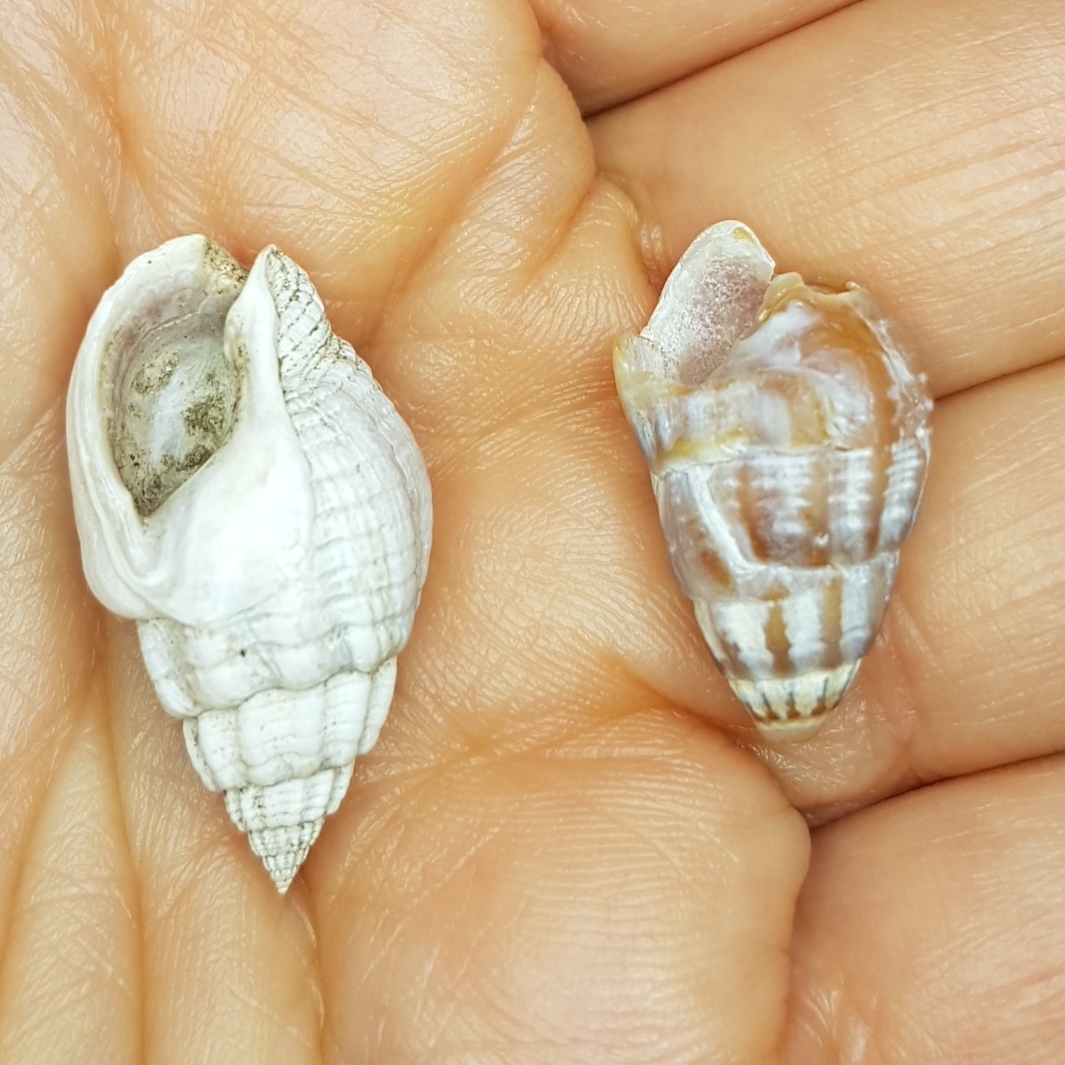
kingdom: Animalia
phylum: Mollusca
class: Gastropoda
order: Neogastropoda
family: Nassariidae
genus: Tritia
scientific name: Tritia nitida
